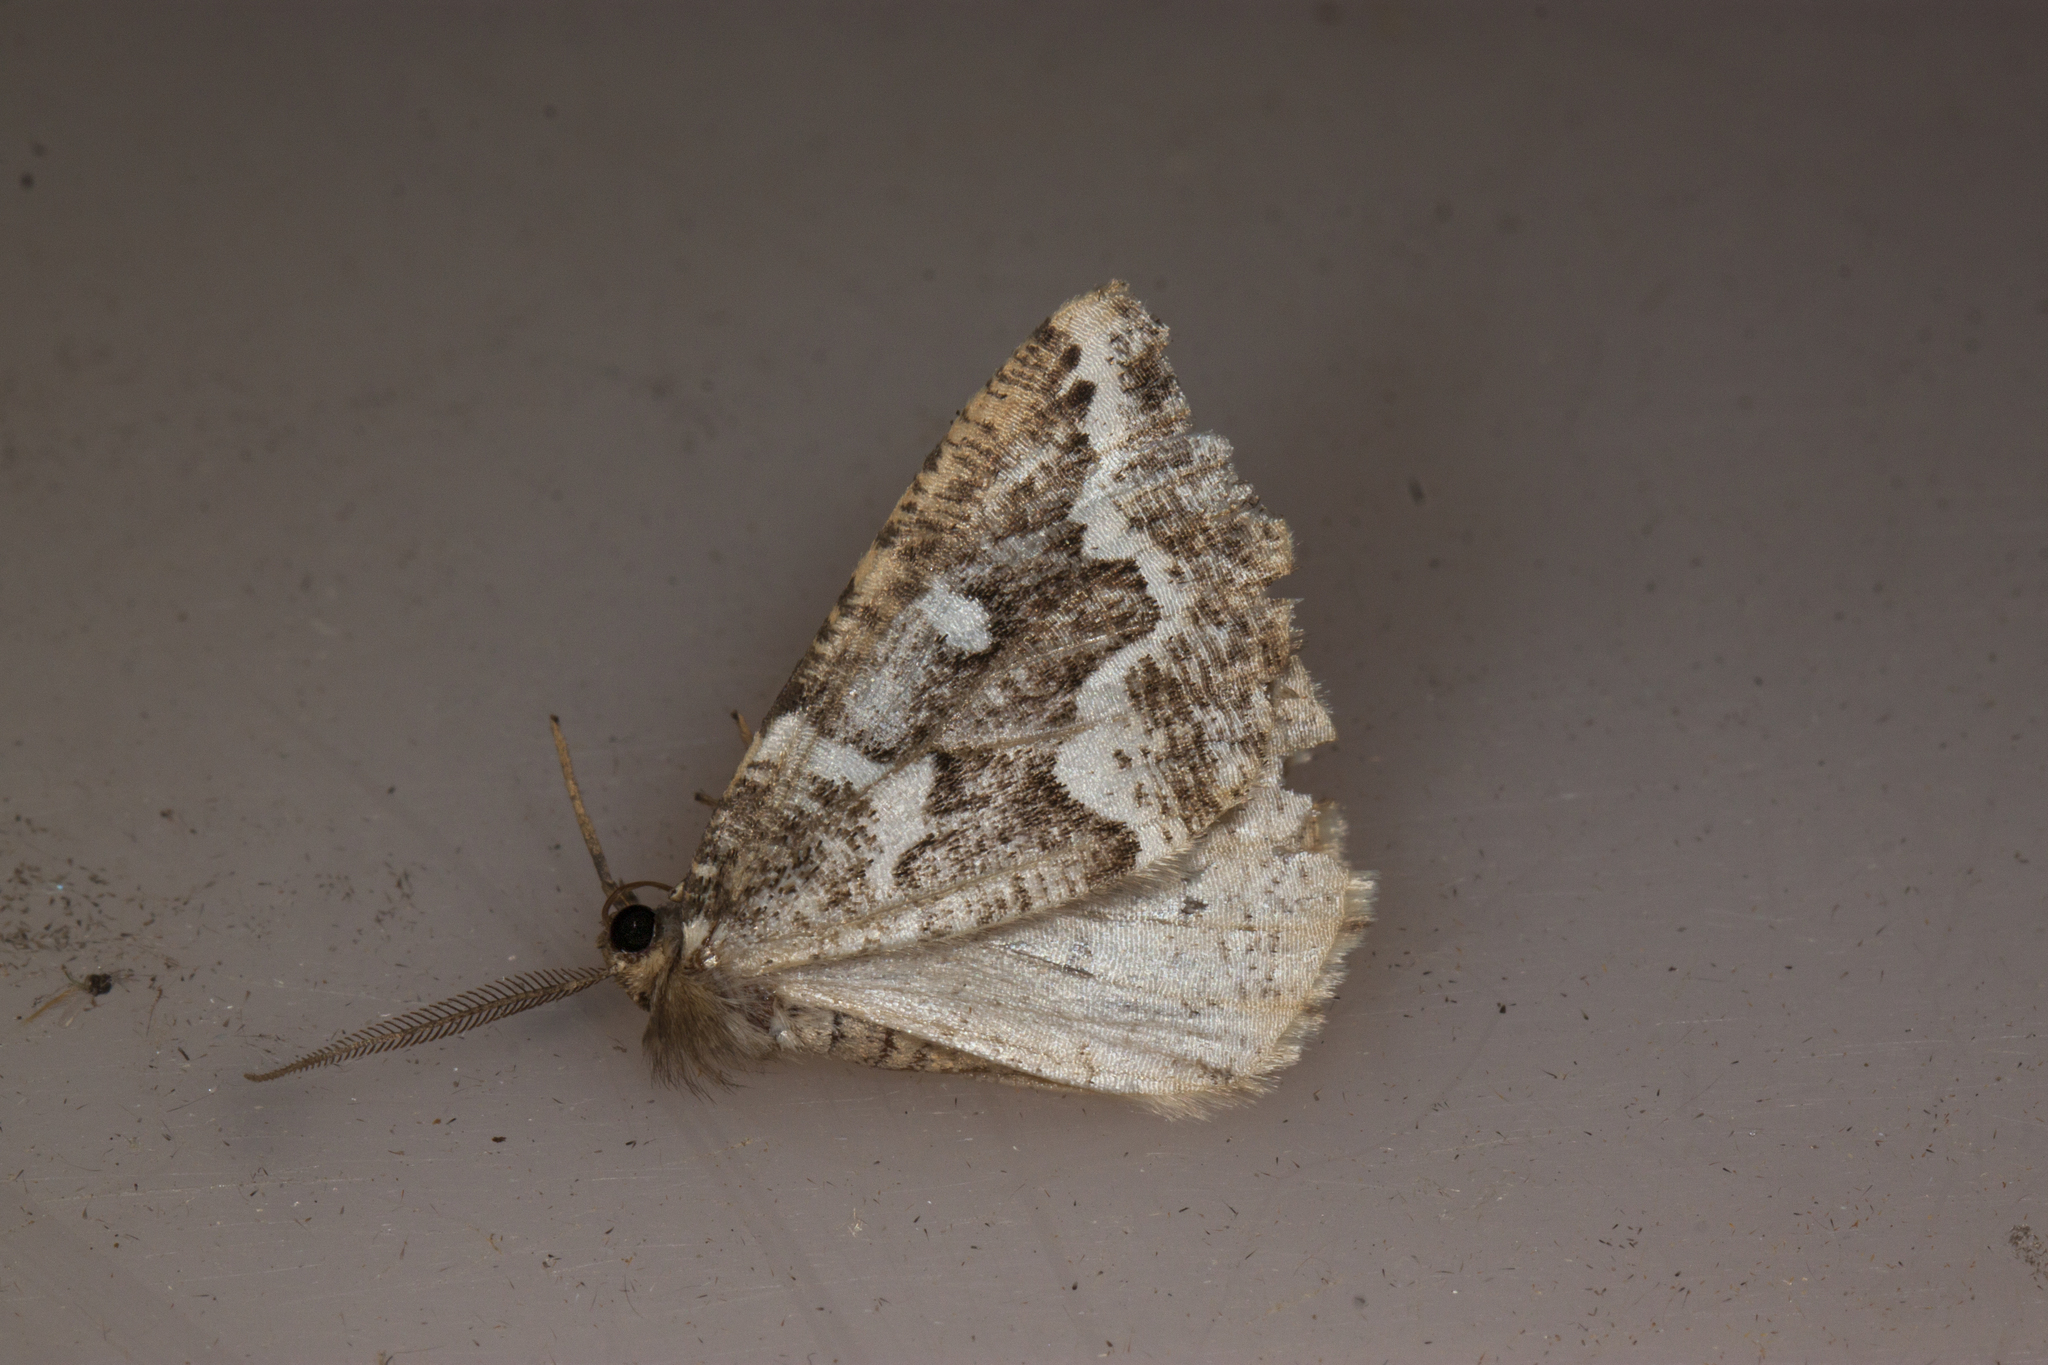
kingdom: Animalia
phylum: Arthropoda
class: Insecta
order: Lepidoptera
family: Geometridae
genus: Caripeta
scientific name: Caripeta divisata
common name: Gray spruce looper
